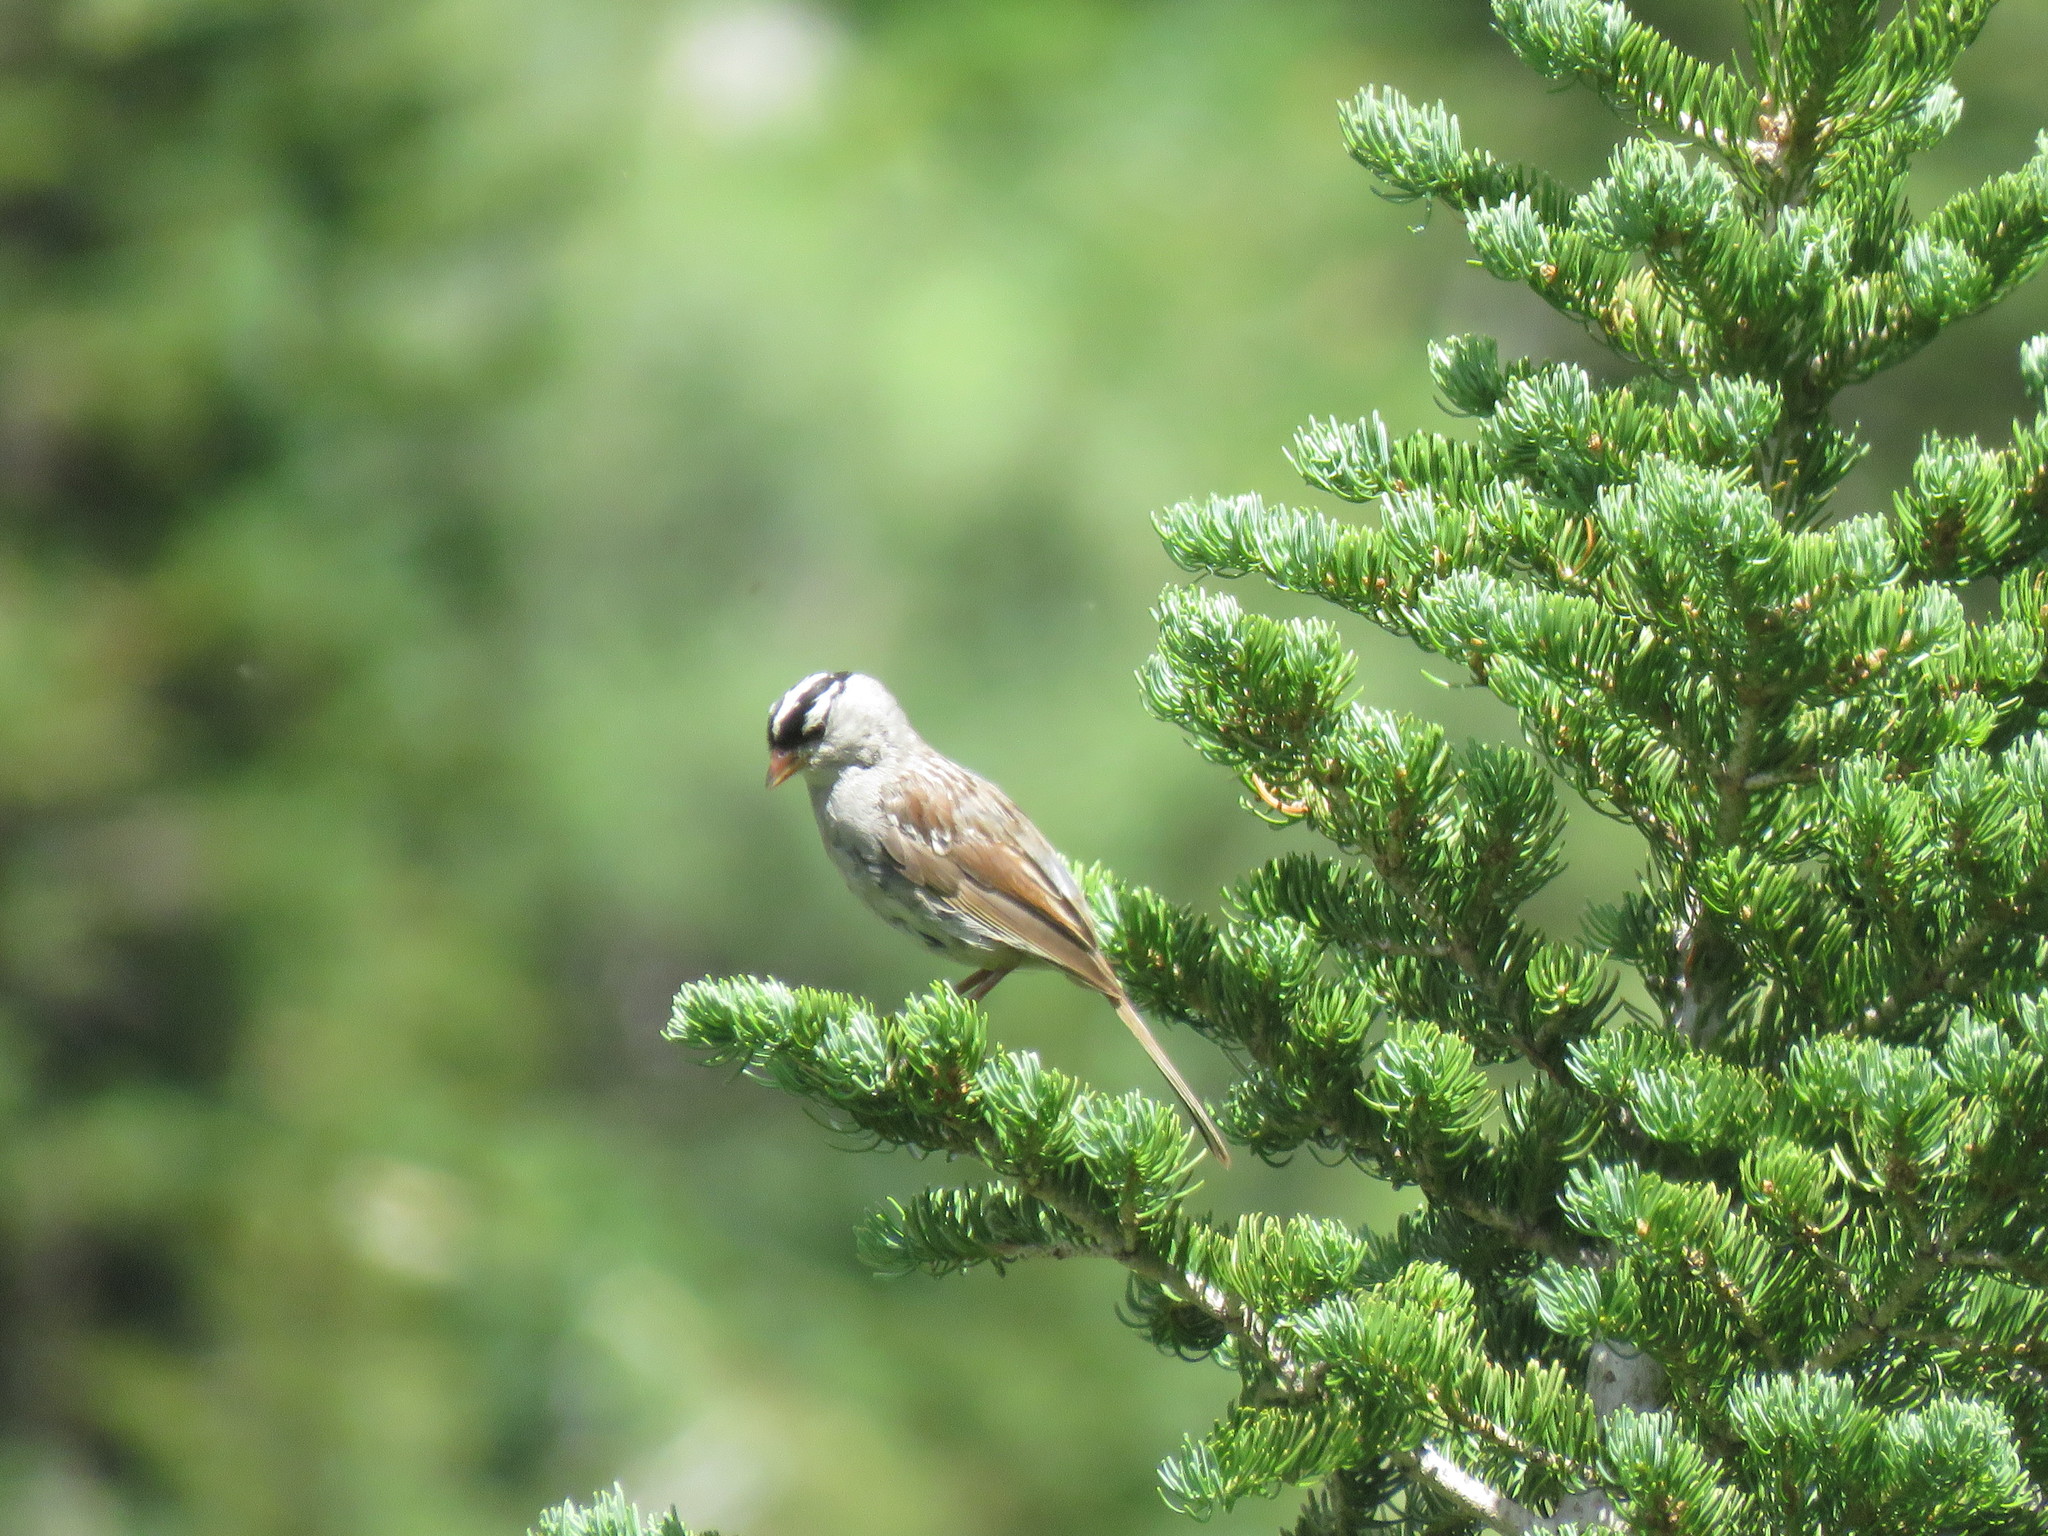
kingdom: Animalia
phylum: Chordata
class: Aves
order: Passeriformes
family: Passerellidae
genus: Zonotrichia
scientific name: Zonotrichia leucophrys
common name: White-crowned sparrow
